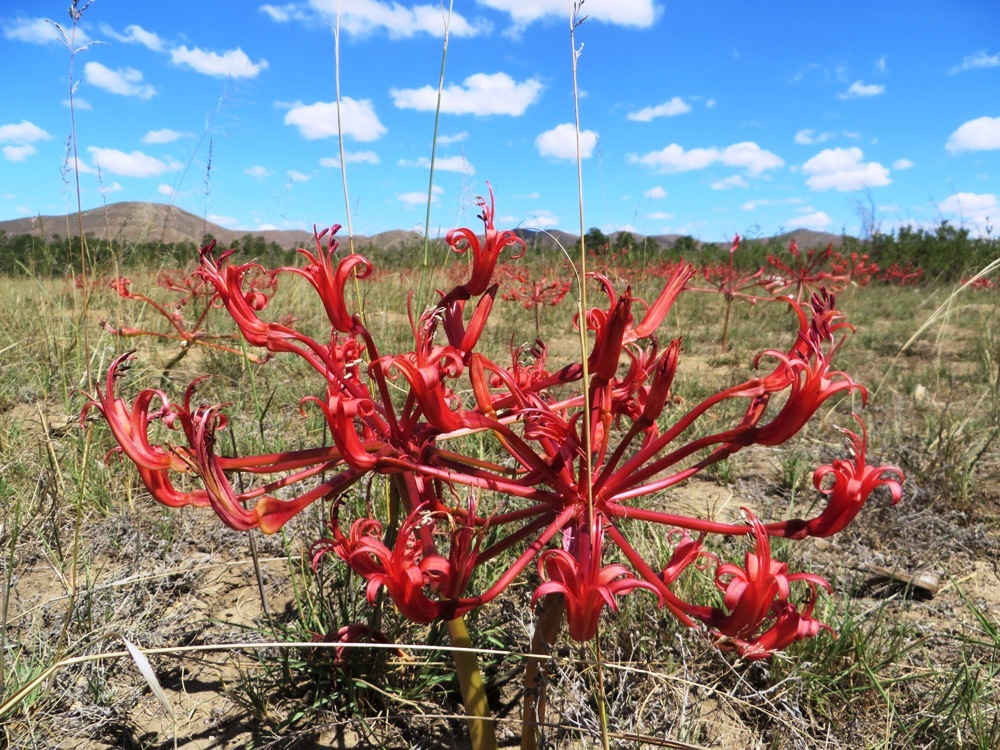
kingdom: Plantae
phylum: Tracheophyta
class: Liliopsida
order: Asparagales
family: Amaryllidaceae
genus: Brunsvigia
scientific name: Brunsvigia orientalis
